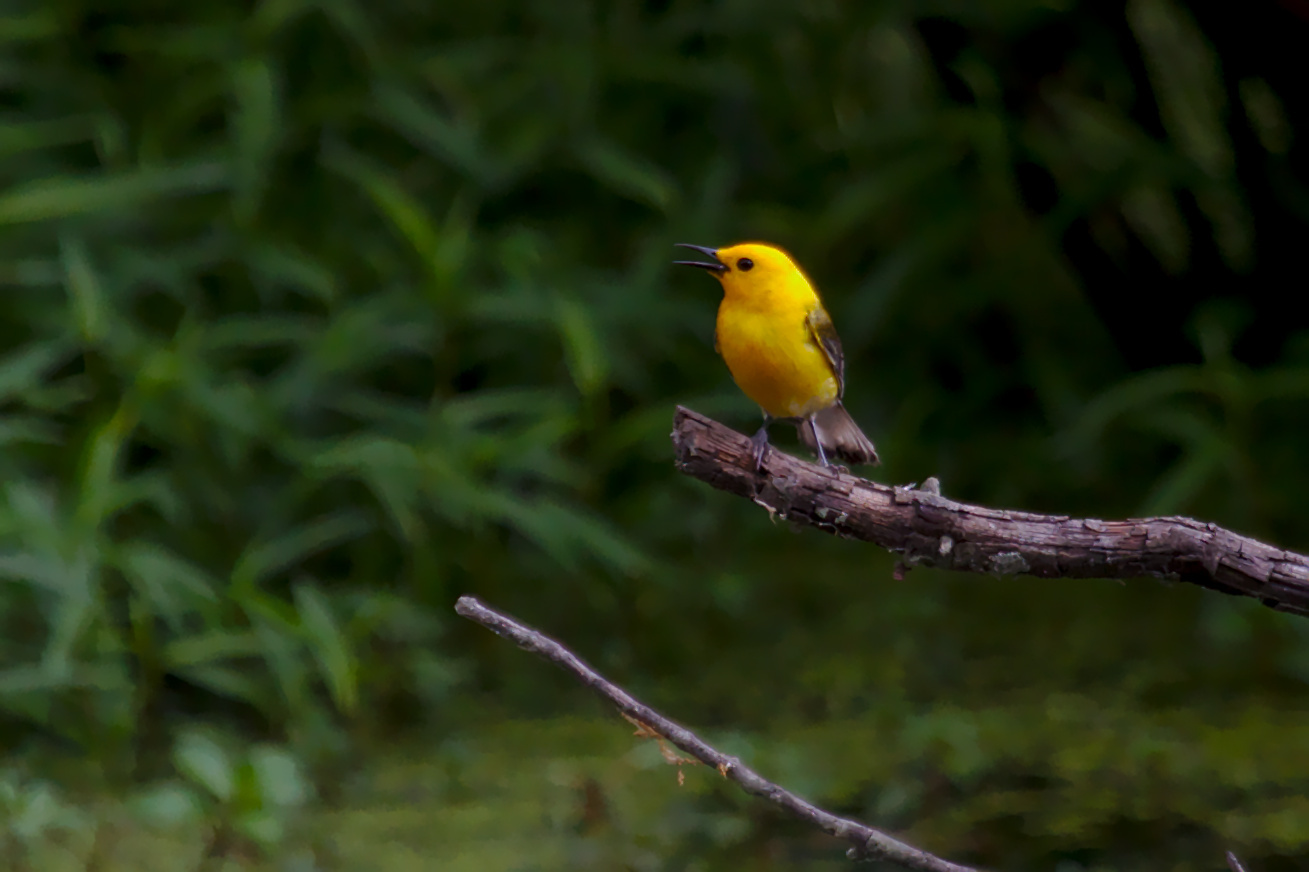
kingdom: Animalia
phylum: Chordata
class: Aves
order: Passeriformes
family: Parulidae
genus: Protonotaria
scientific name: Protonotaria citrea
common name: Prothonotary warbler
